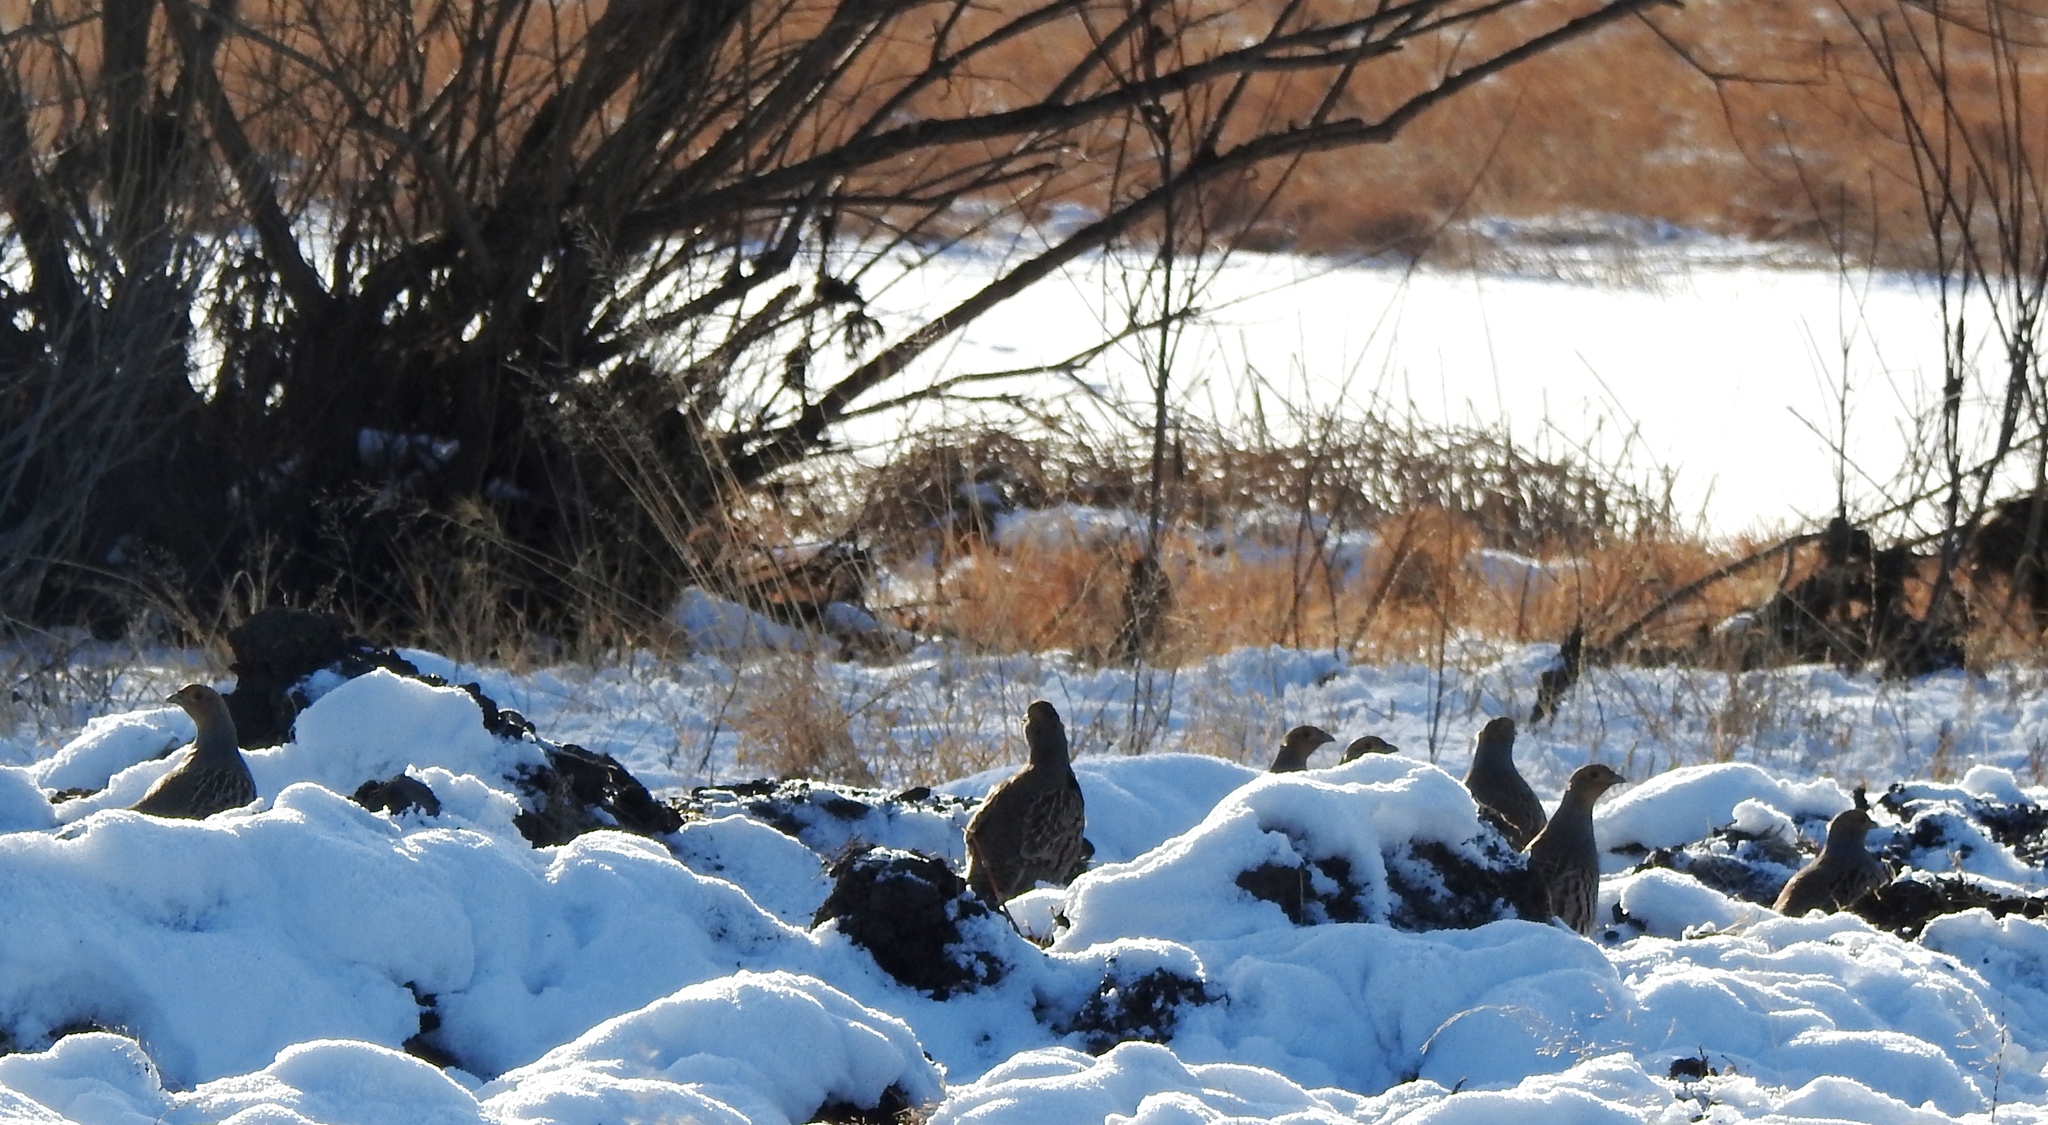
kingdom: Animalia
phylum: Chordata
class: Aves
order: Galliformes
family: Phasianidae
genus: Perdix
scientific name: Perdix dauurica
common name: Daurian partridge
